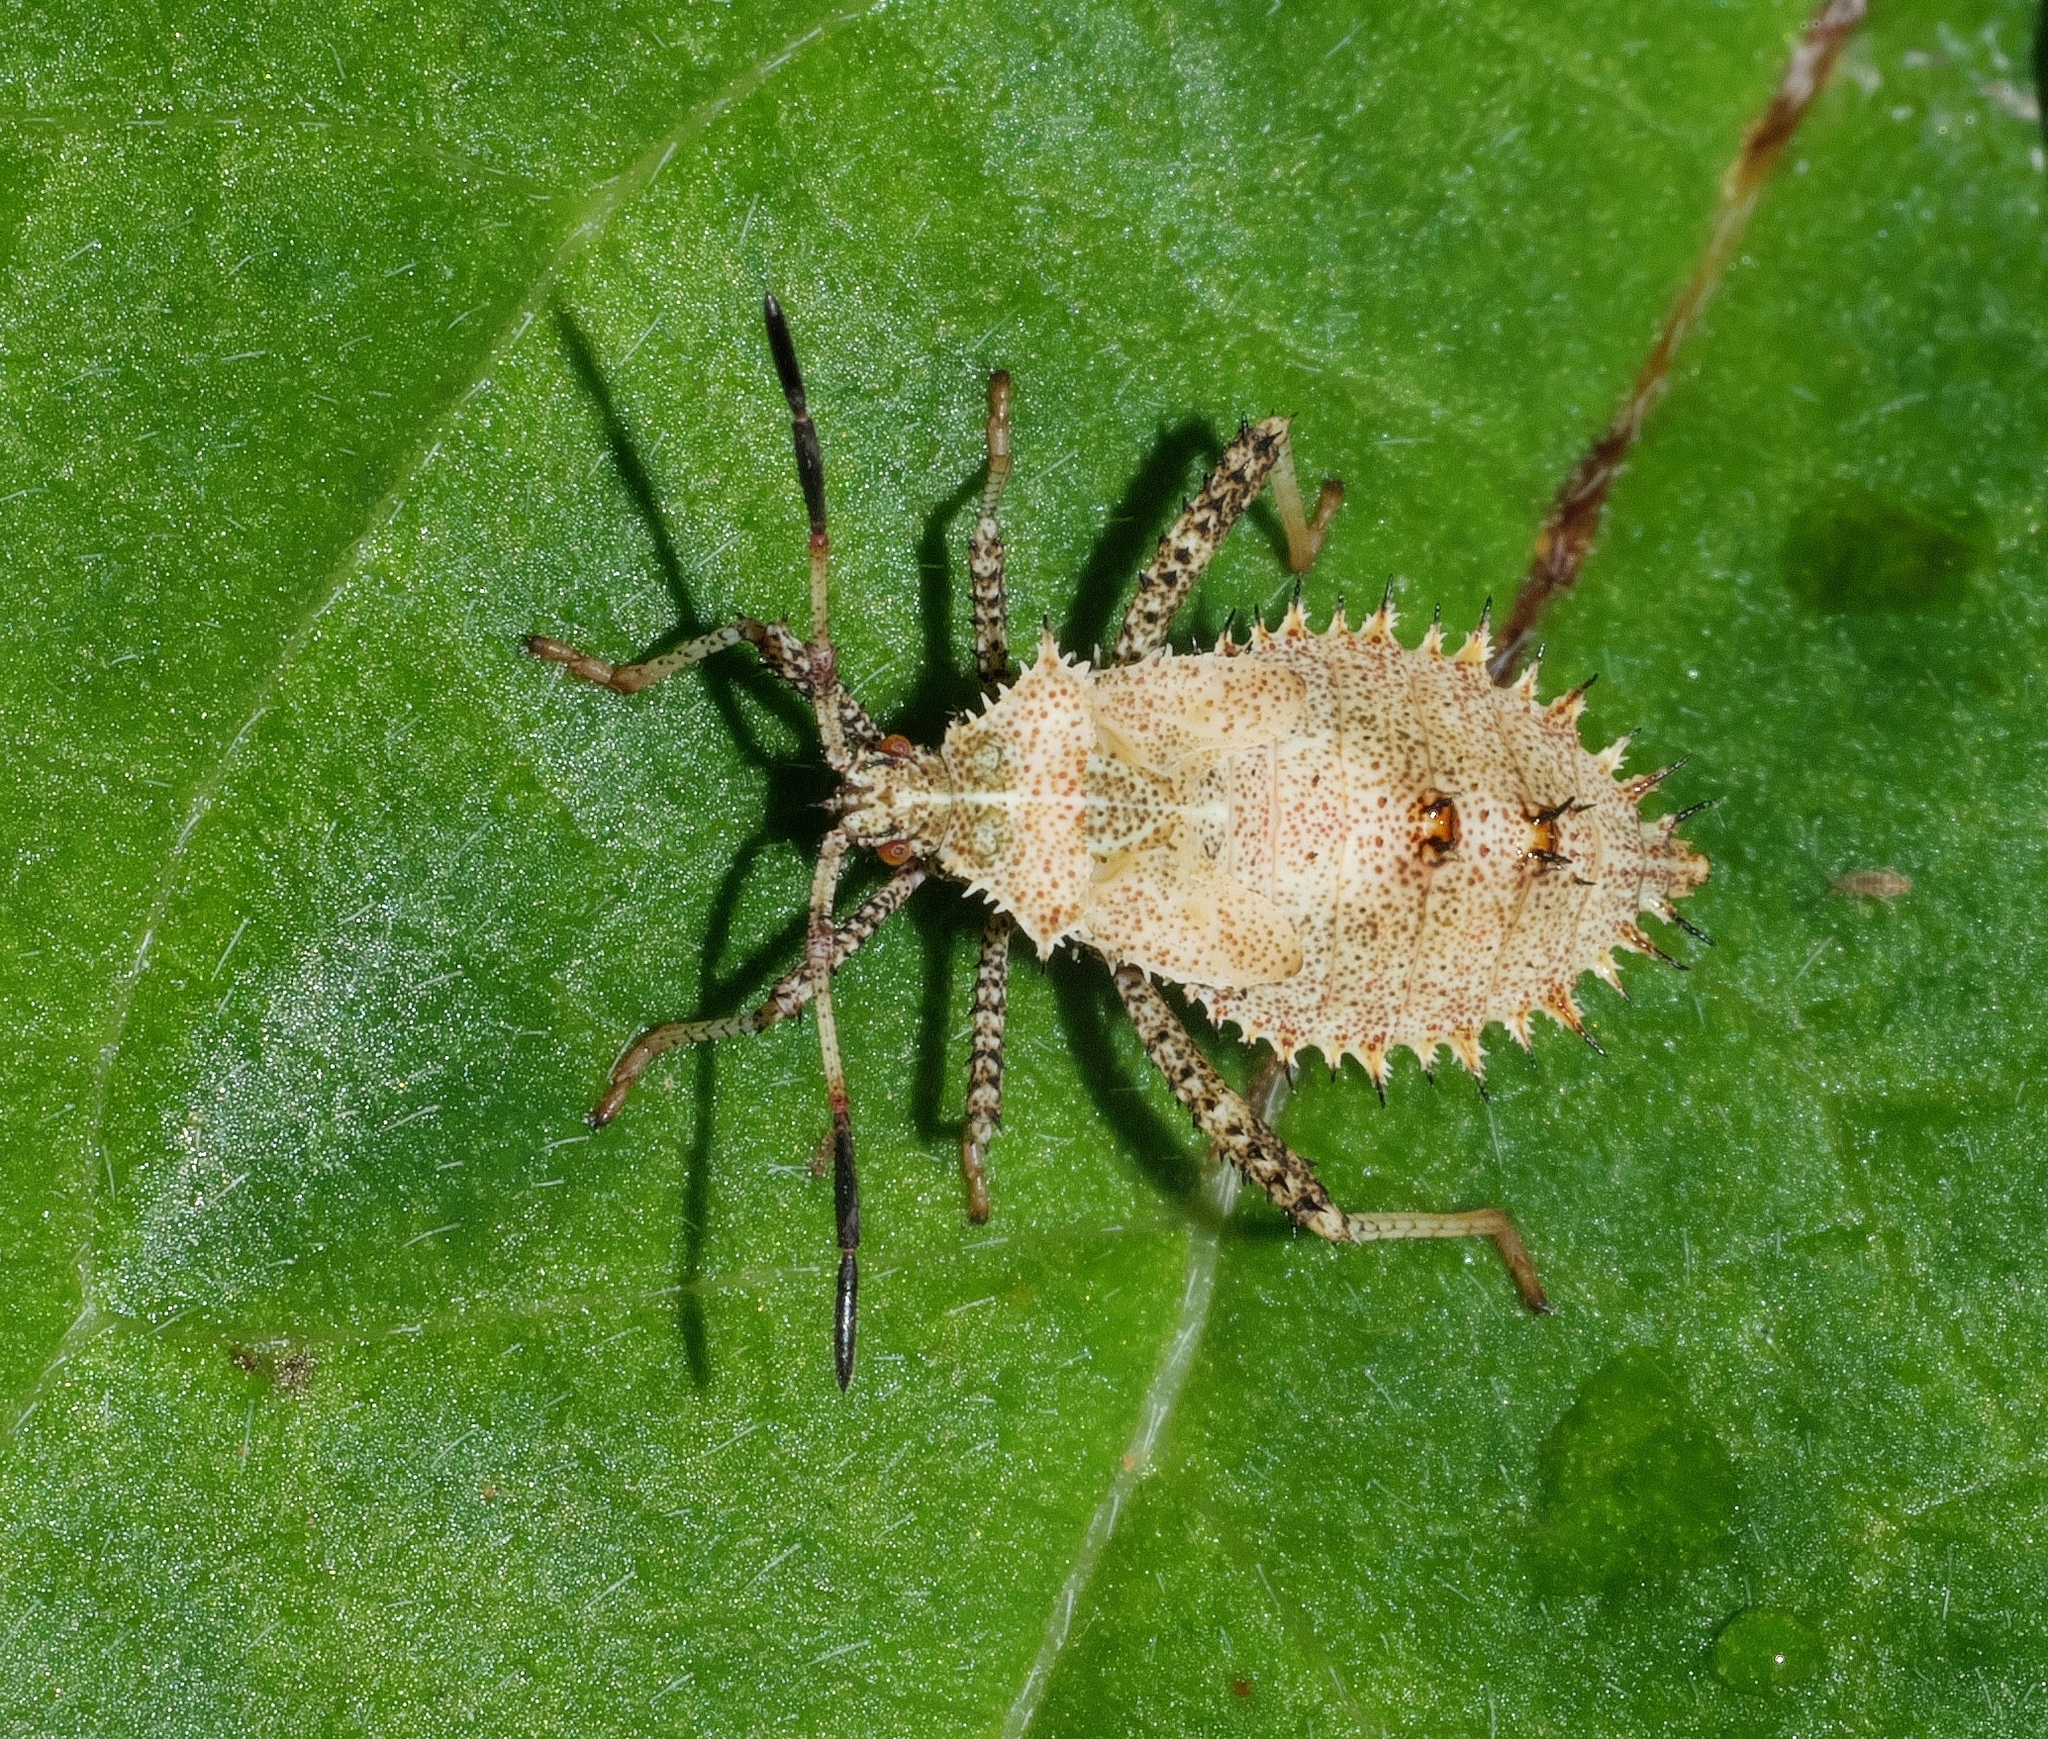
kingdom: Animalia
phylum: Arthropoda
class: Insecta
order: Hemiptera
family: Coreidae
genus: Euthochtha
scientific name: Euthochtha galeator
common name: Helmeted squash bug
